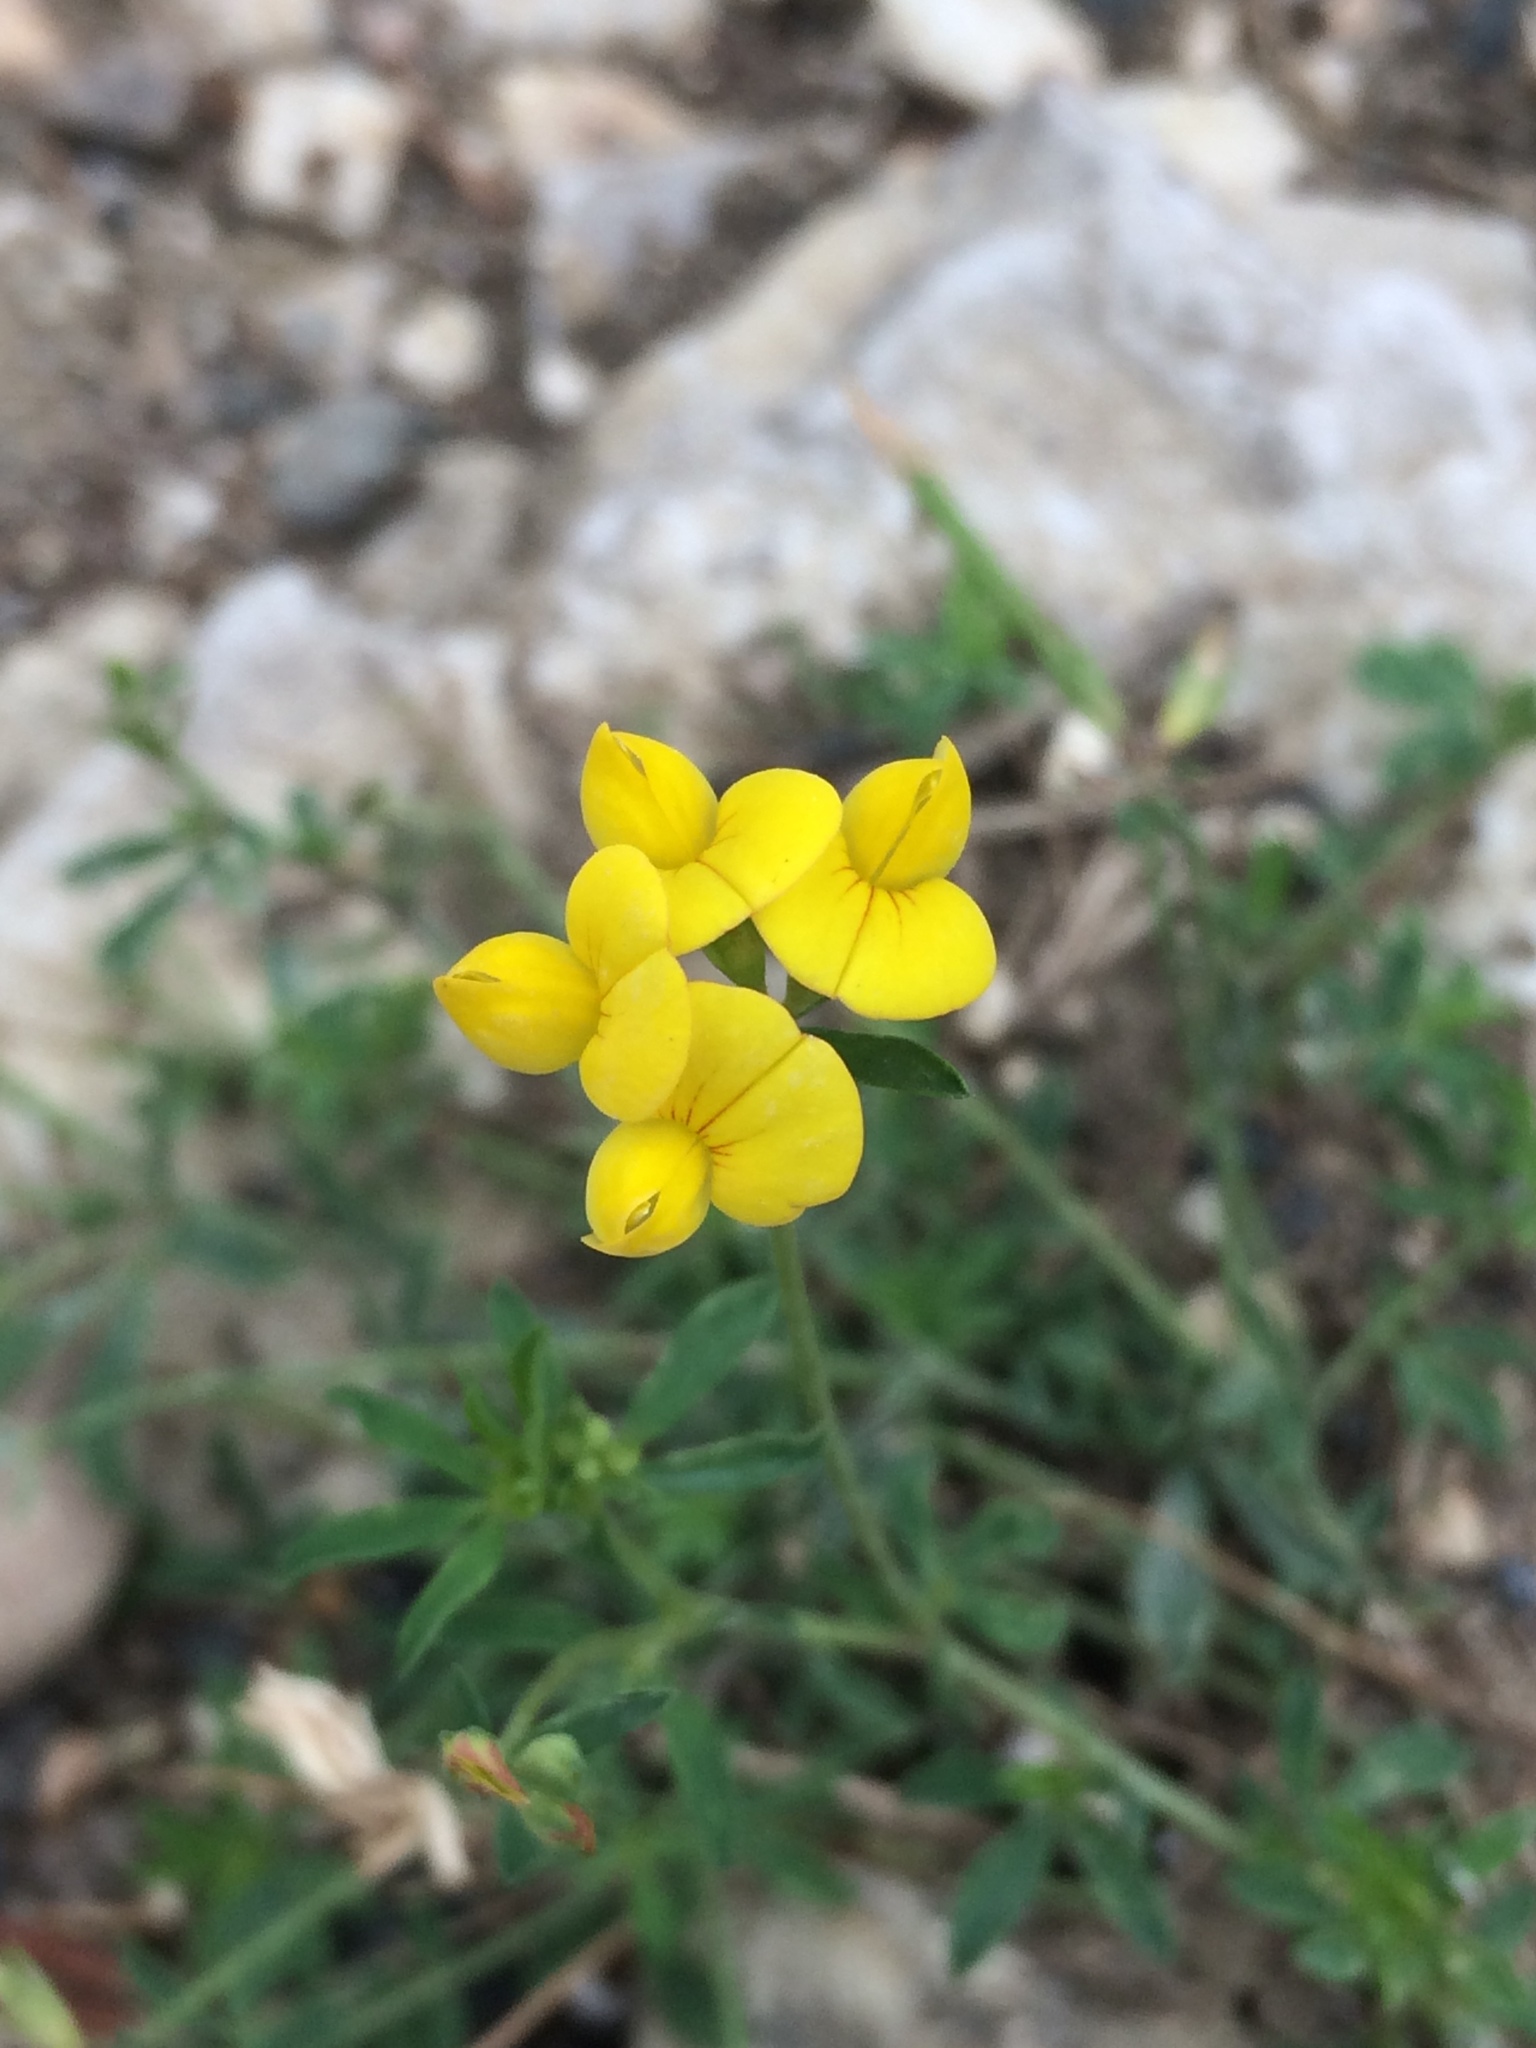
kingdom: Plantae
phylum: Tracheophyta
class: Magnoliopsida
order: Fabales
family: Fabaceae
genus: Lotus
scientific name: Lotus corniculatus
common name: Common bird's-foot-trefoil
